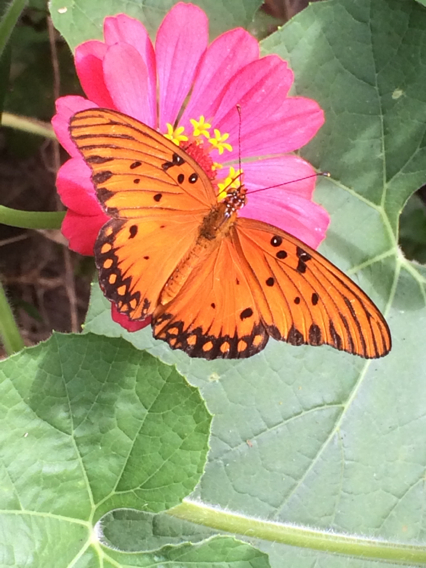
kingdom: Animalia
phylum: Arthropoda
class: Insecta
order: Lepidoptera
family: Nymphalidae
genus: Dione
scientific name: Dione vanillae
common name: Gulf fritillary
